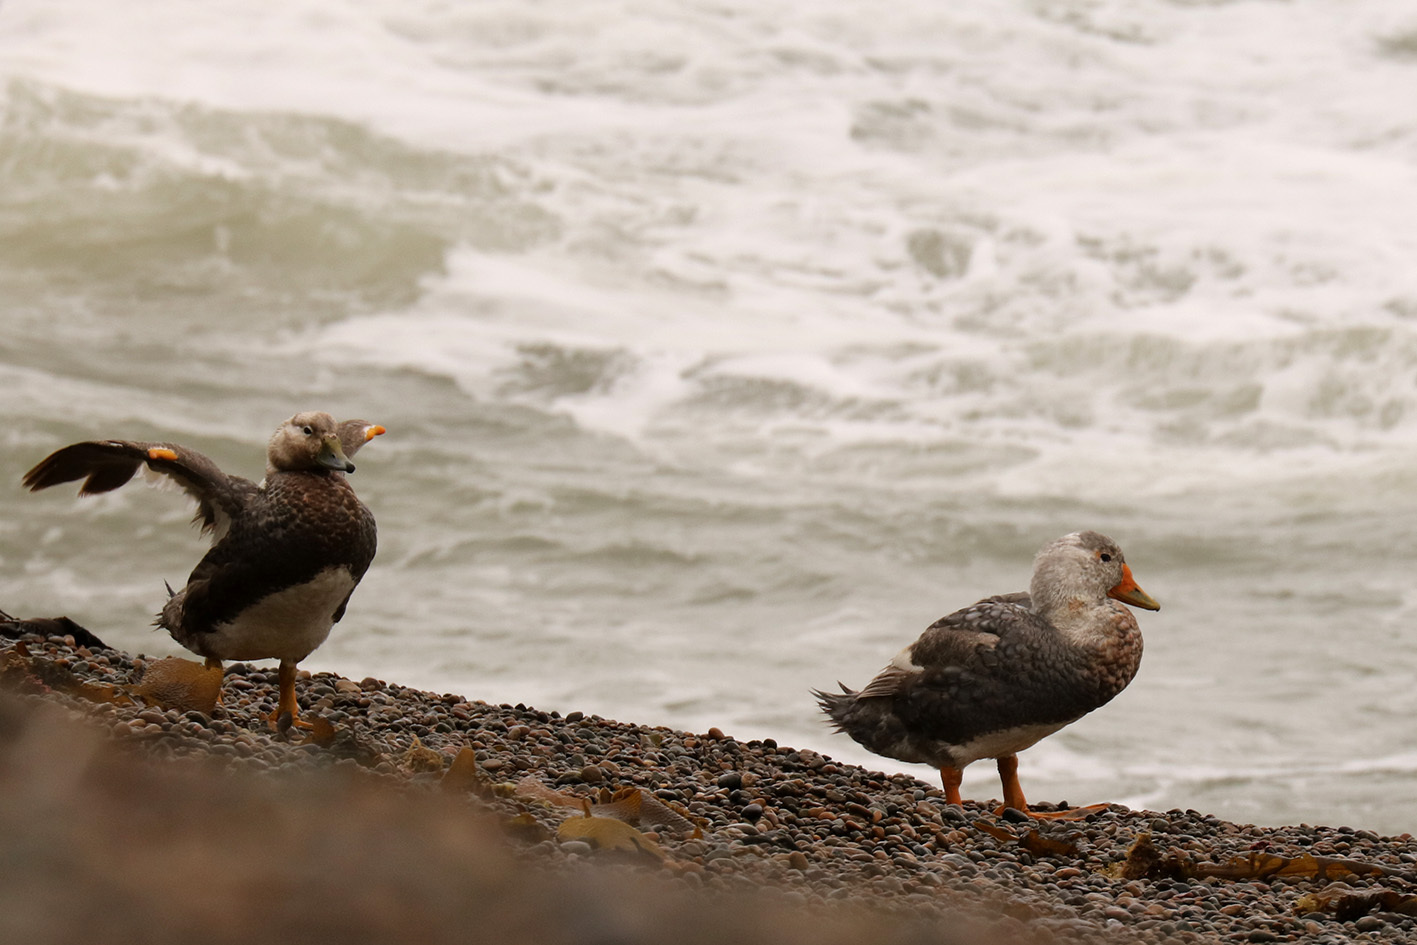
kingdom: Animalia
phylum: Chordata
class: Aves
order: Anseriformes
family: Anatidae
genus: Tachyeres
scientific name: Tachyeres leucocephalus
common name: Chubut steamer duck
